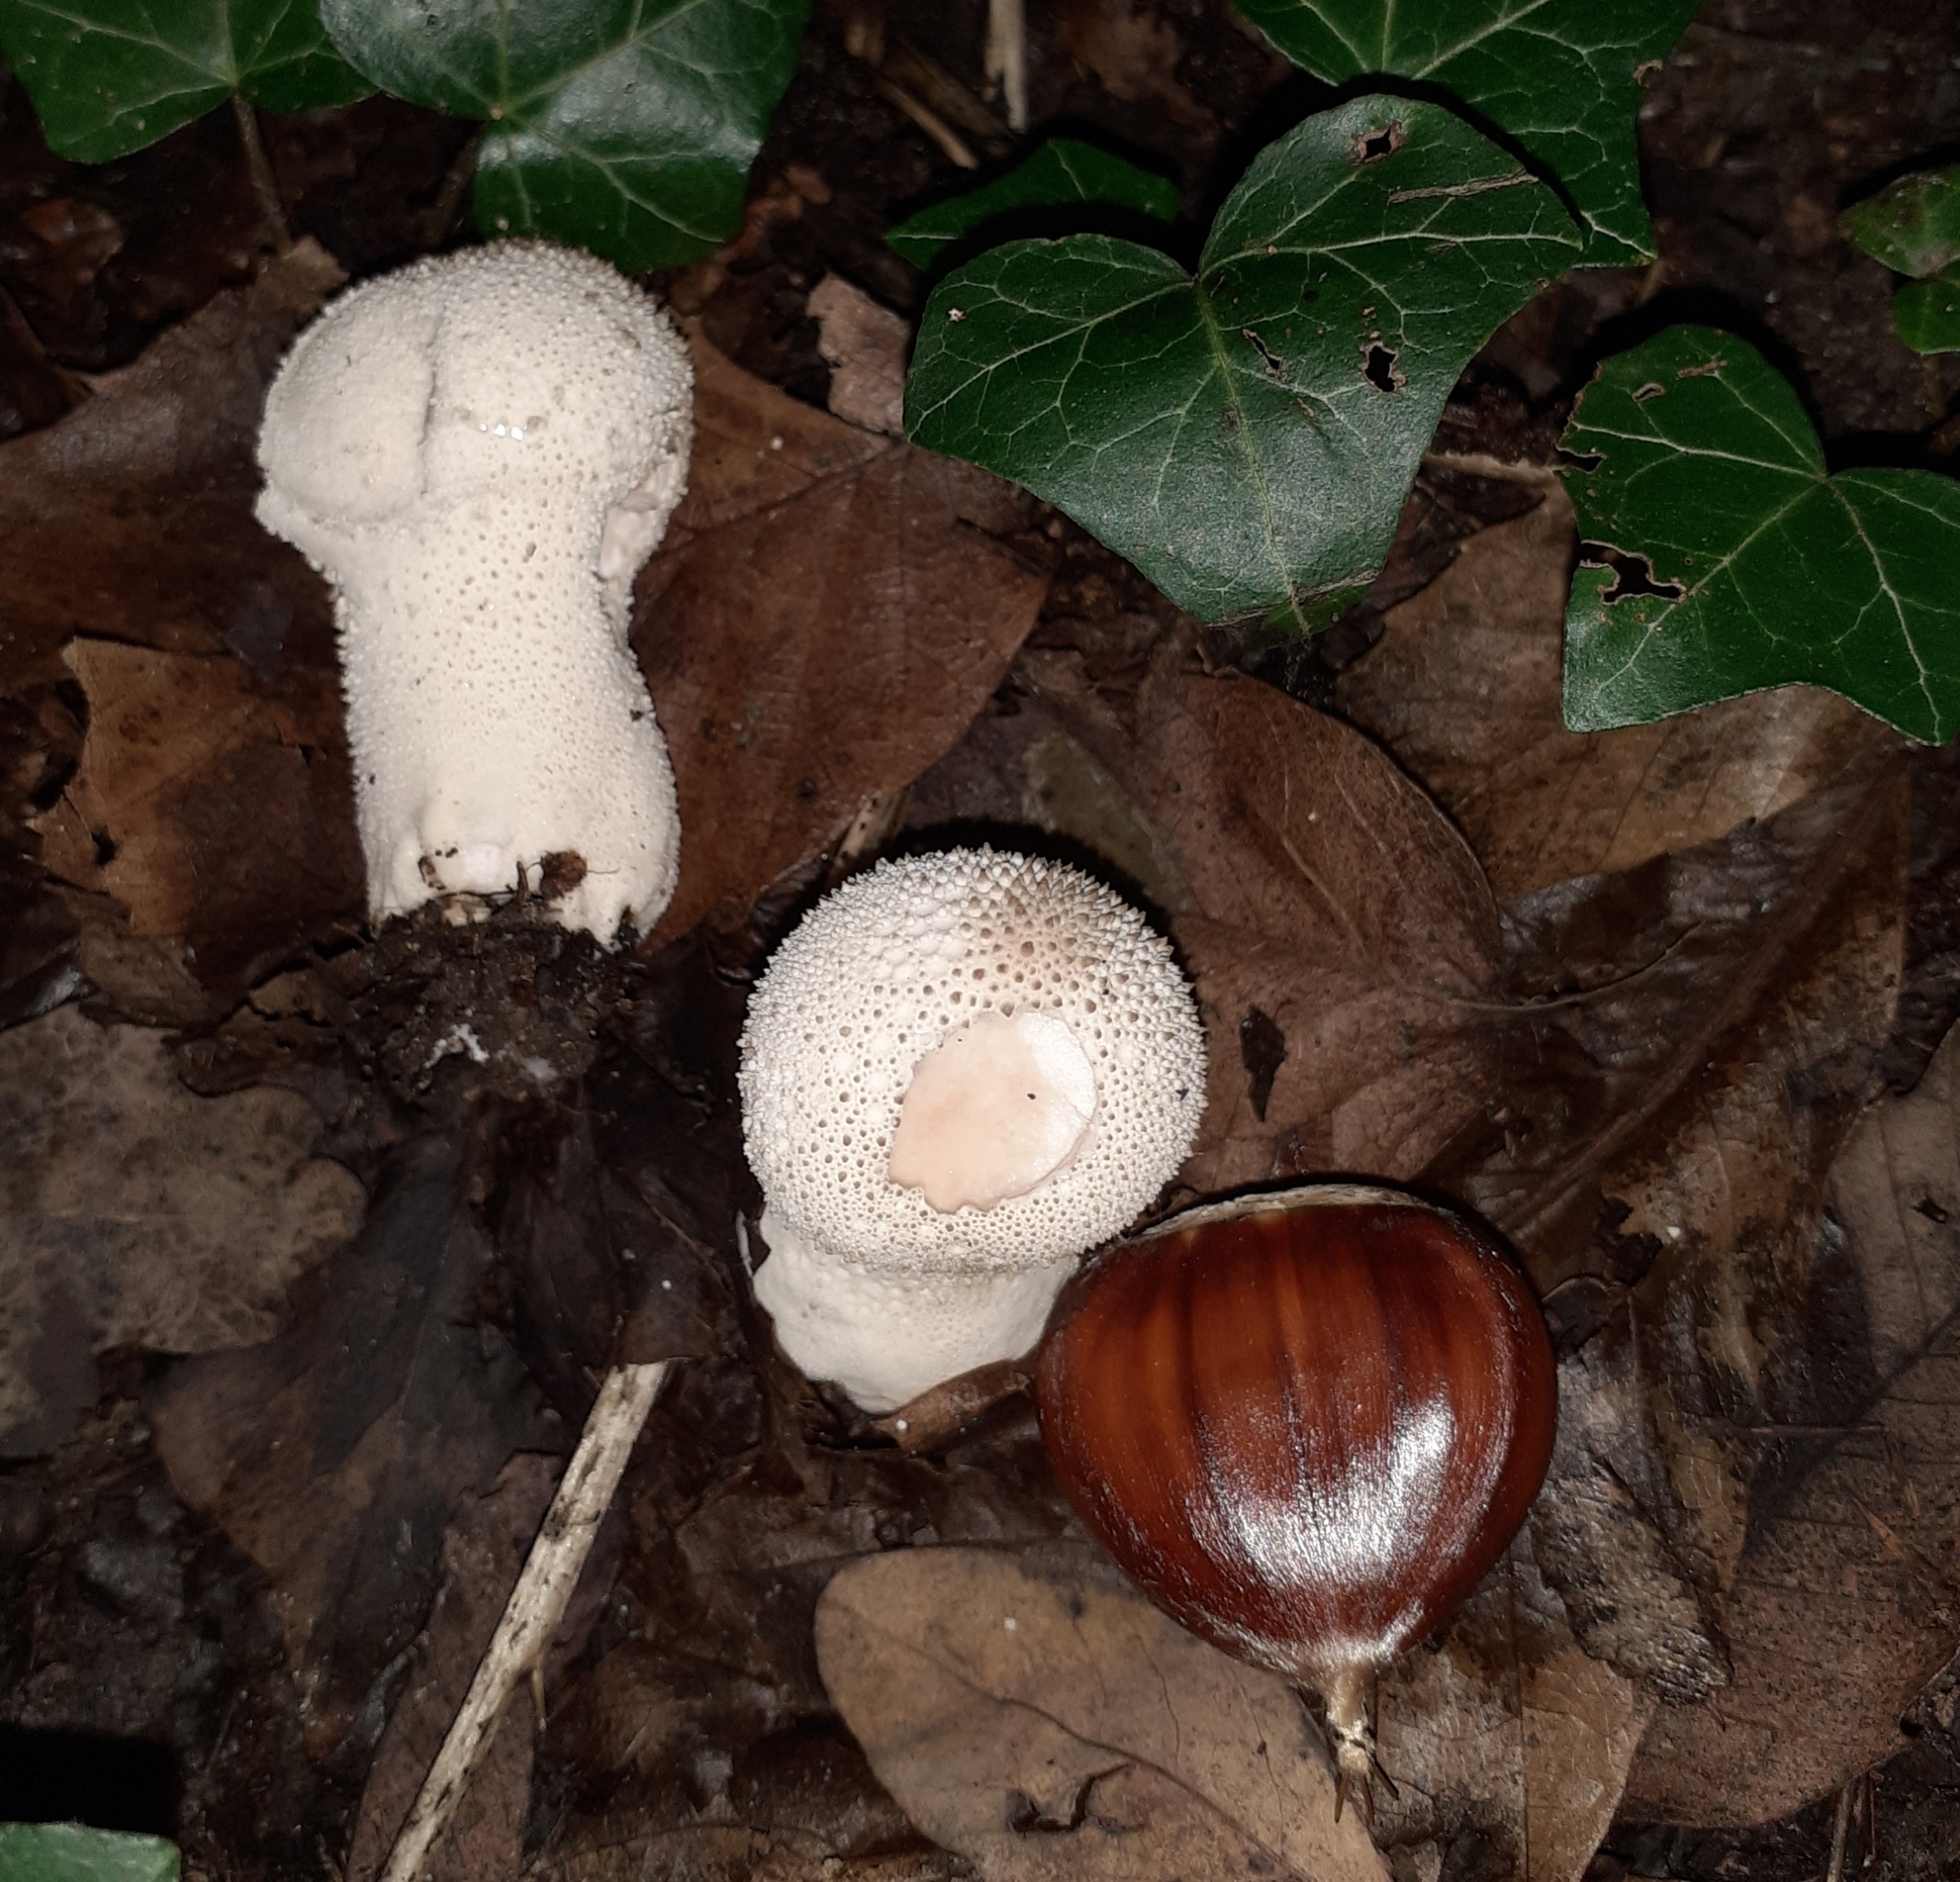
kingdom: Fungi
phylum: Basidiomycota
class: Agaricomycetes
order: Agaricales
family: Lycoperdaceae
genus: Lycoperdon
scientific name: Lycoperdon perlatum
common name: Common puffball
